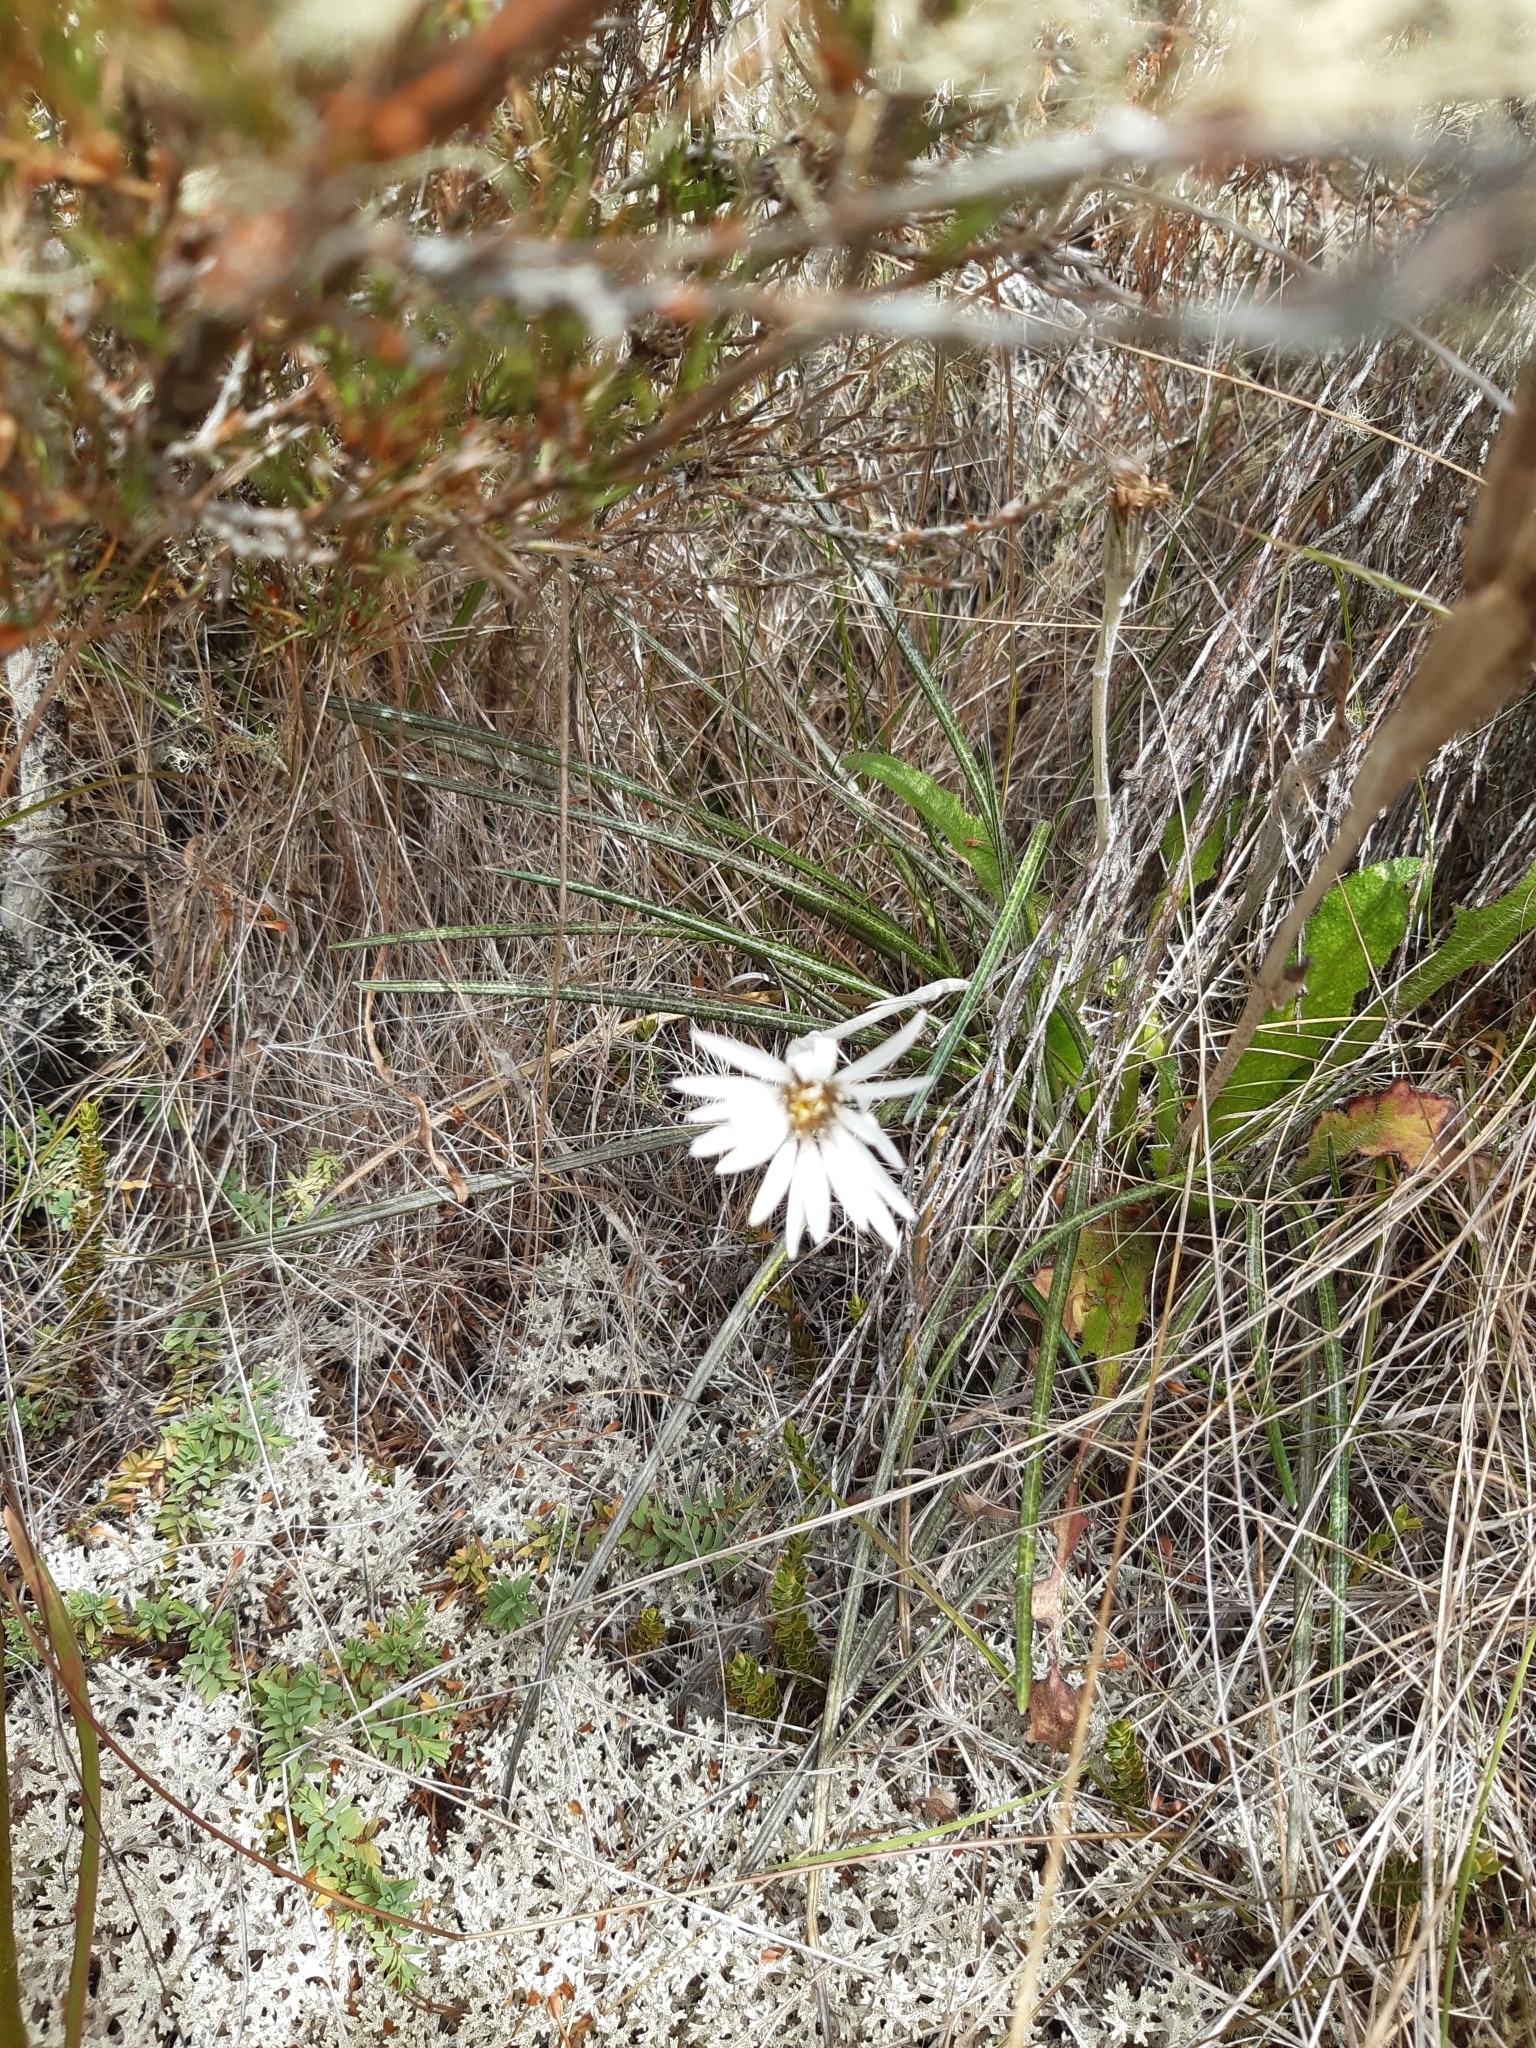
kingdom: Plantae
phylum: Tracheophyta
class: Magnoliopsida
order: Asterales
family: Asteraceae
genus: Celmisia
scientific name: Celmisia gracilenta
